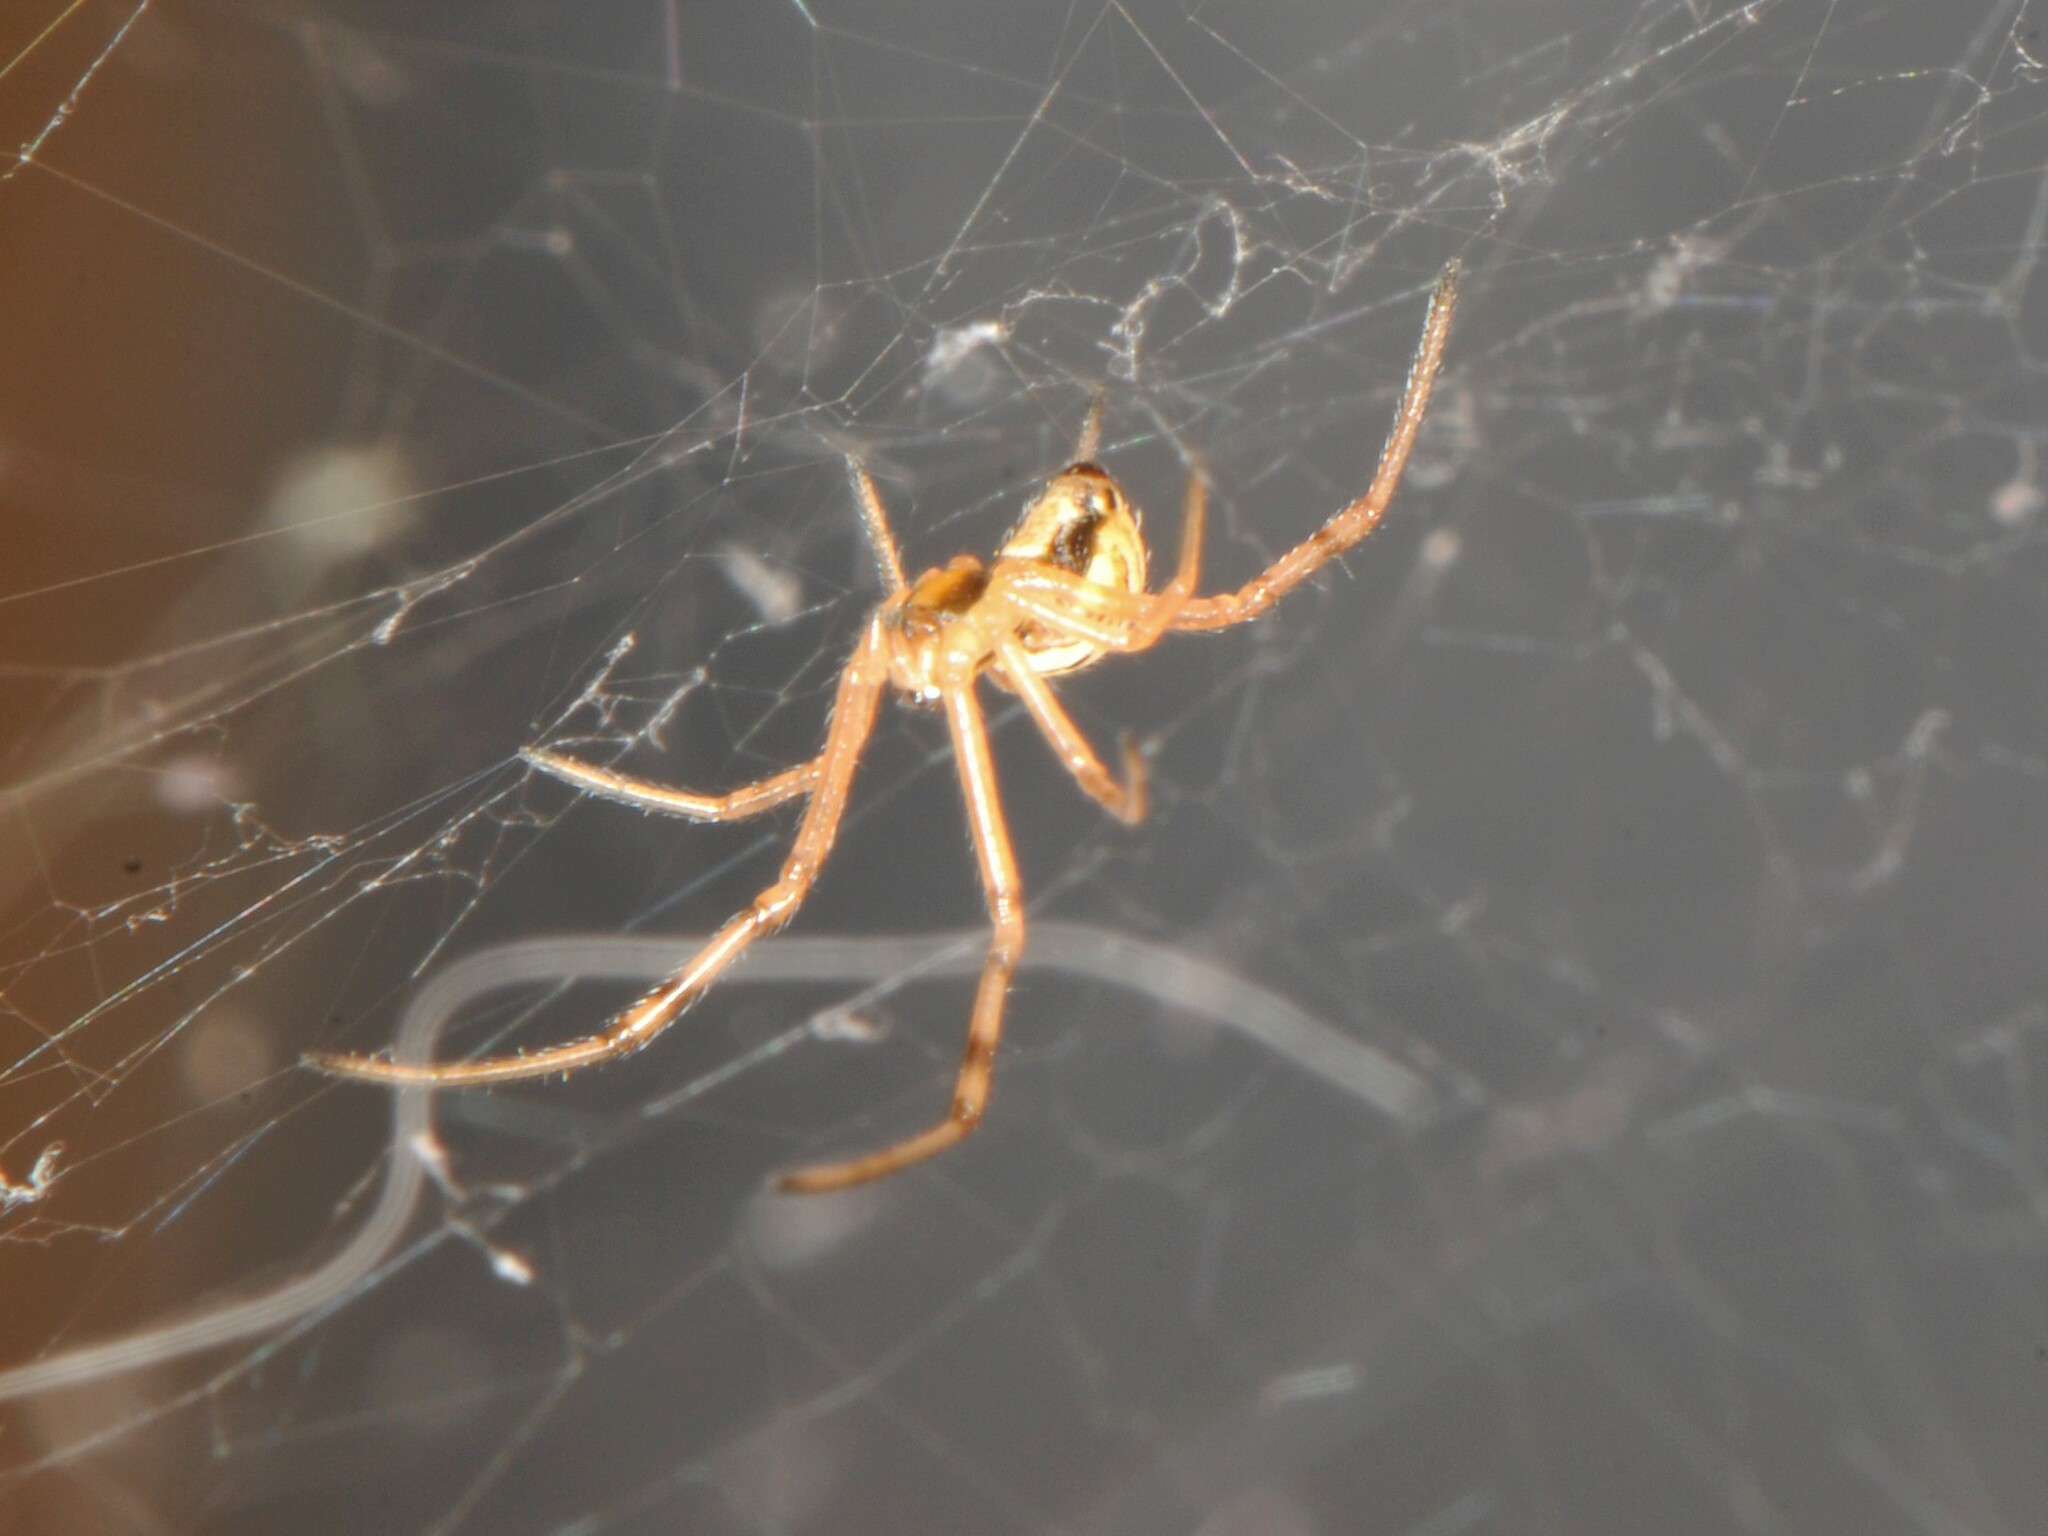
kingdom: Animalia
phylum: Arthropoda
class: Arachnida
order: Araneae
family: Theridiidae
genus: Latrodectus
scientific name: Latrodectus hesperus
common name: Western black widow
